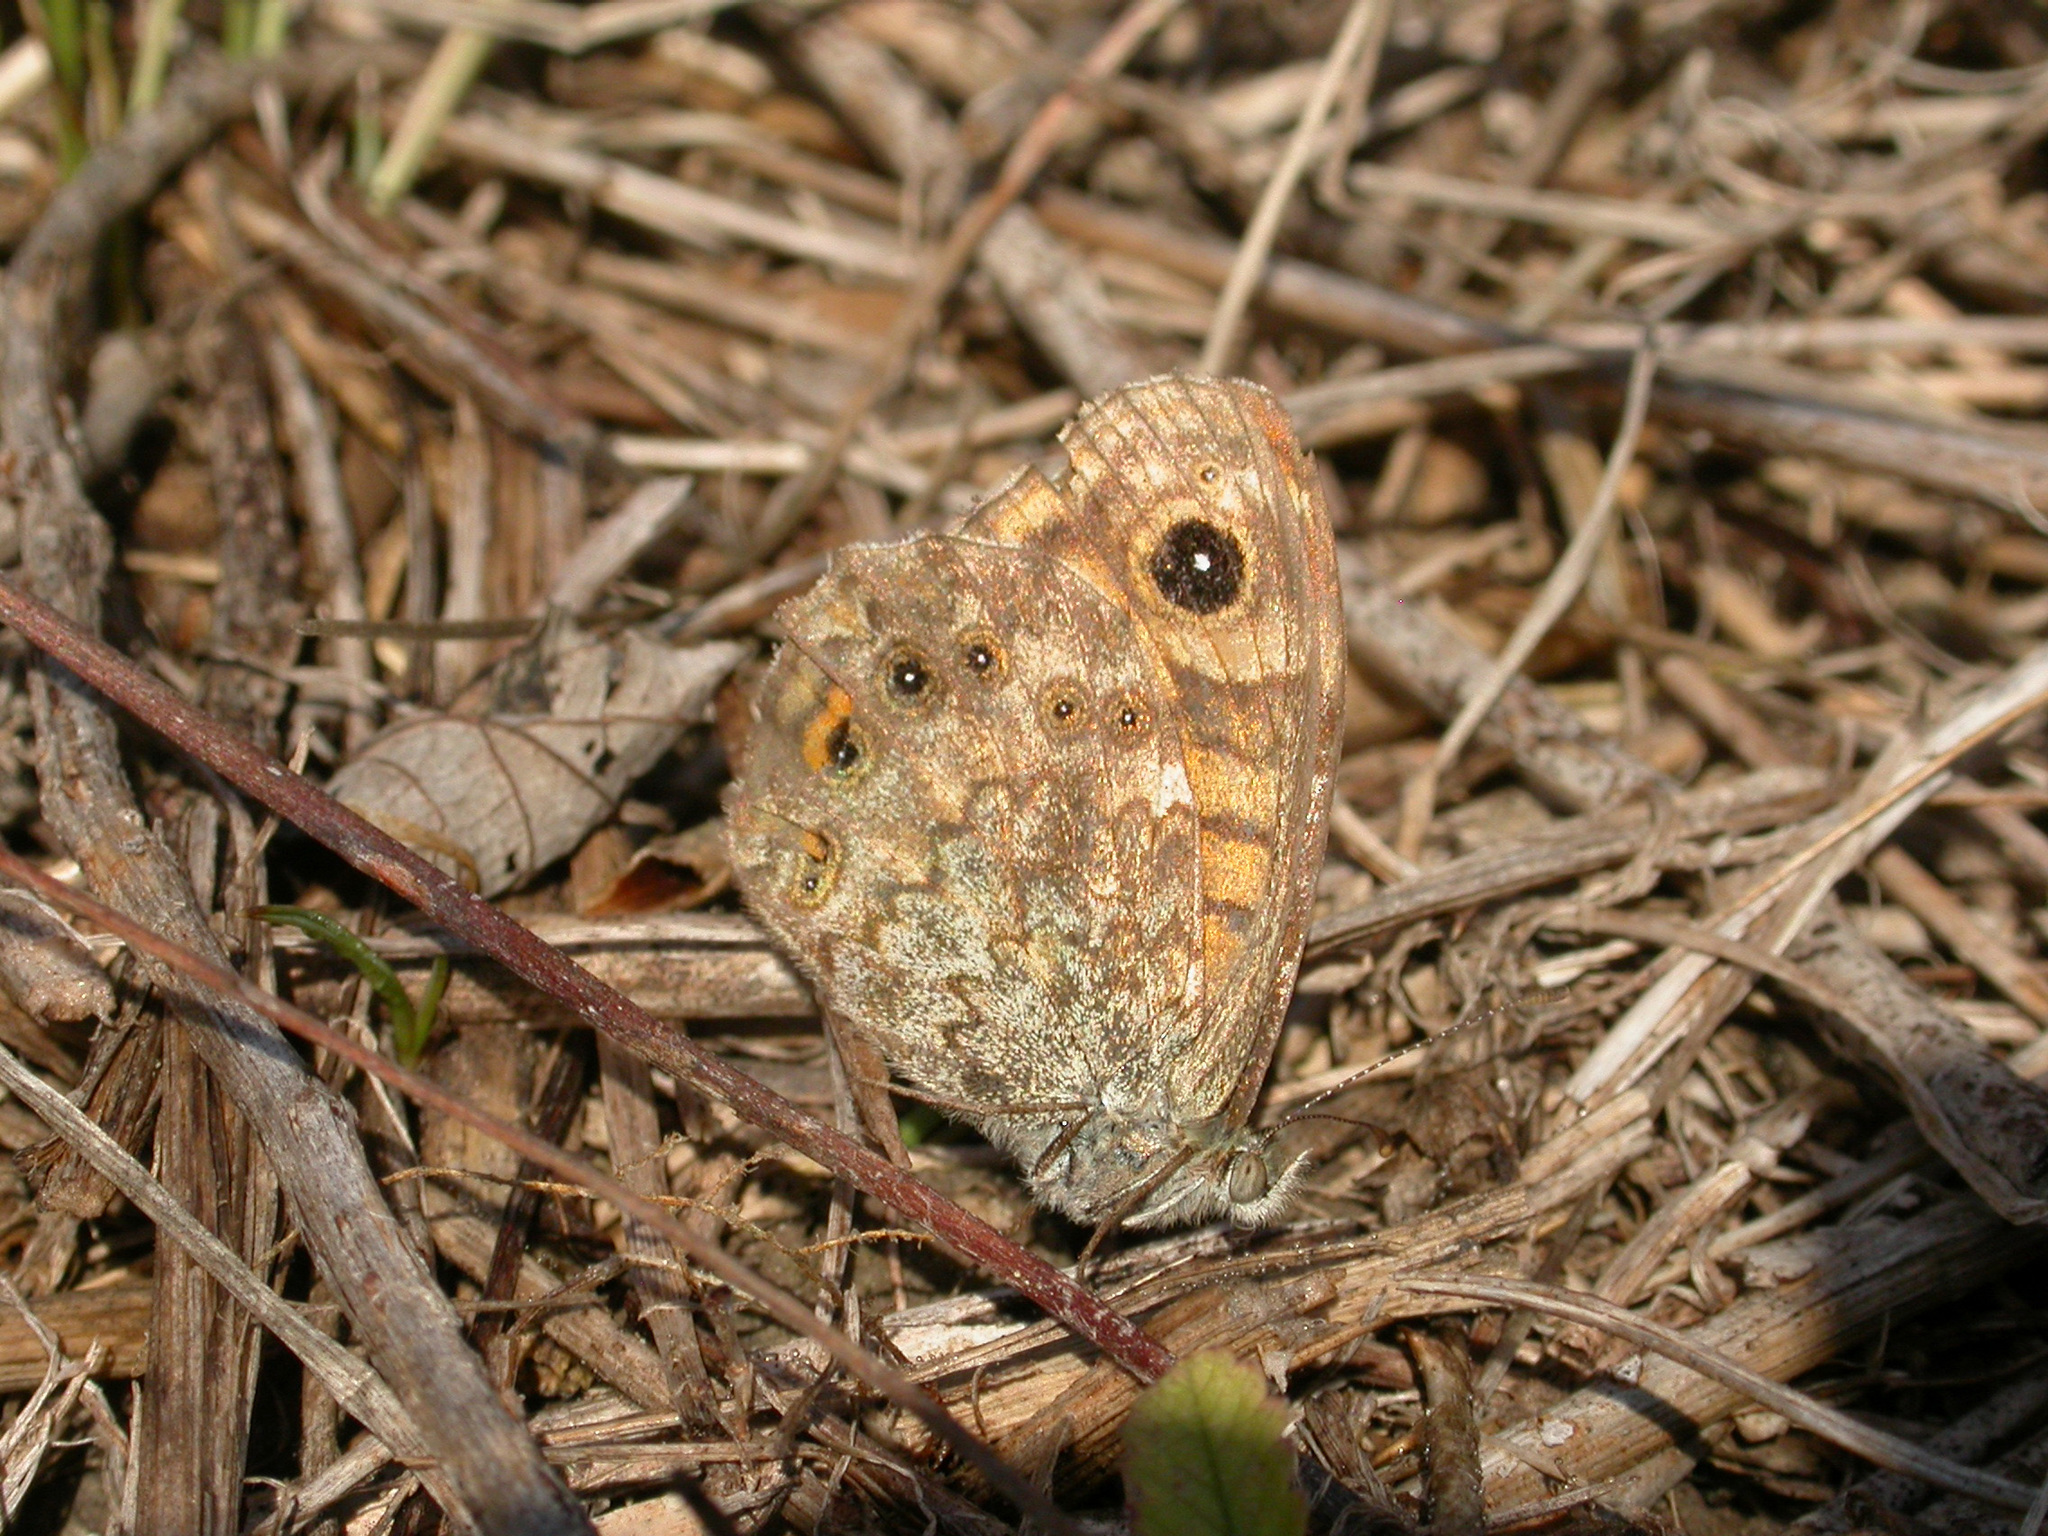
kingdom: Animalia
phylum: Arthropoda
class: Insecta
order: Lepidoptera
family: Nymphalidae
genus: Pararge
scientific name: Pararge Lasiommata megera
